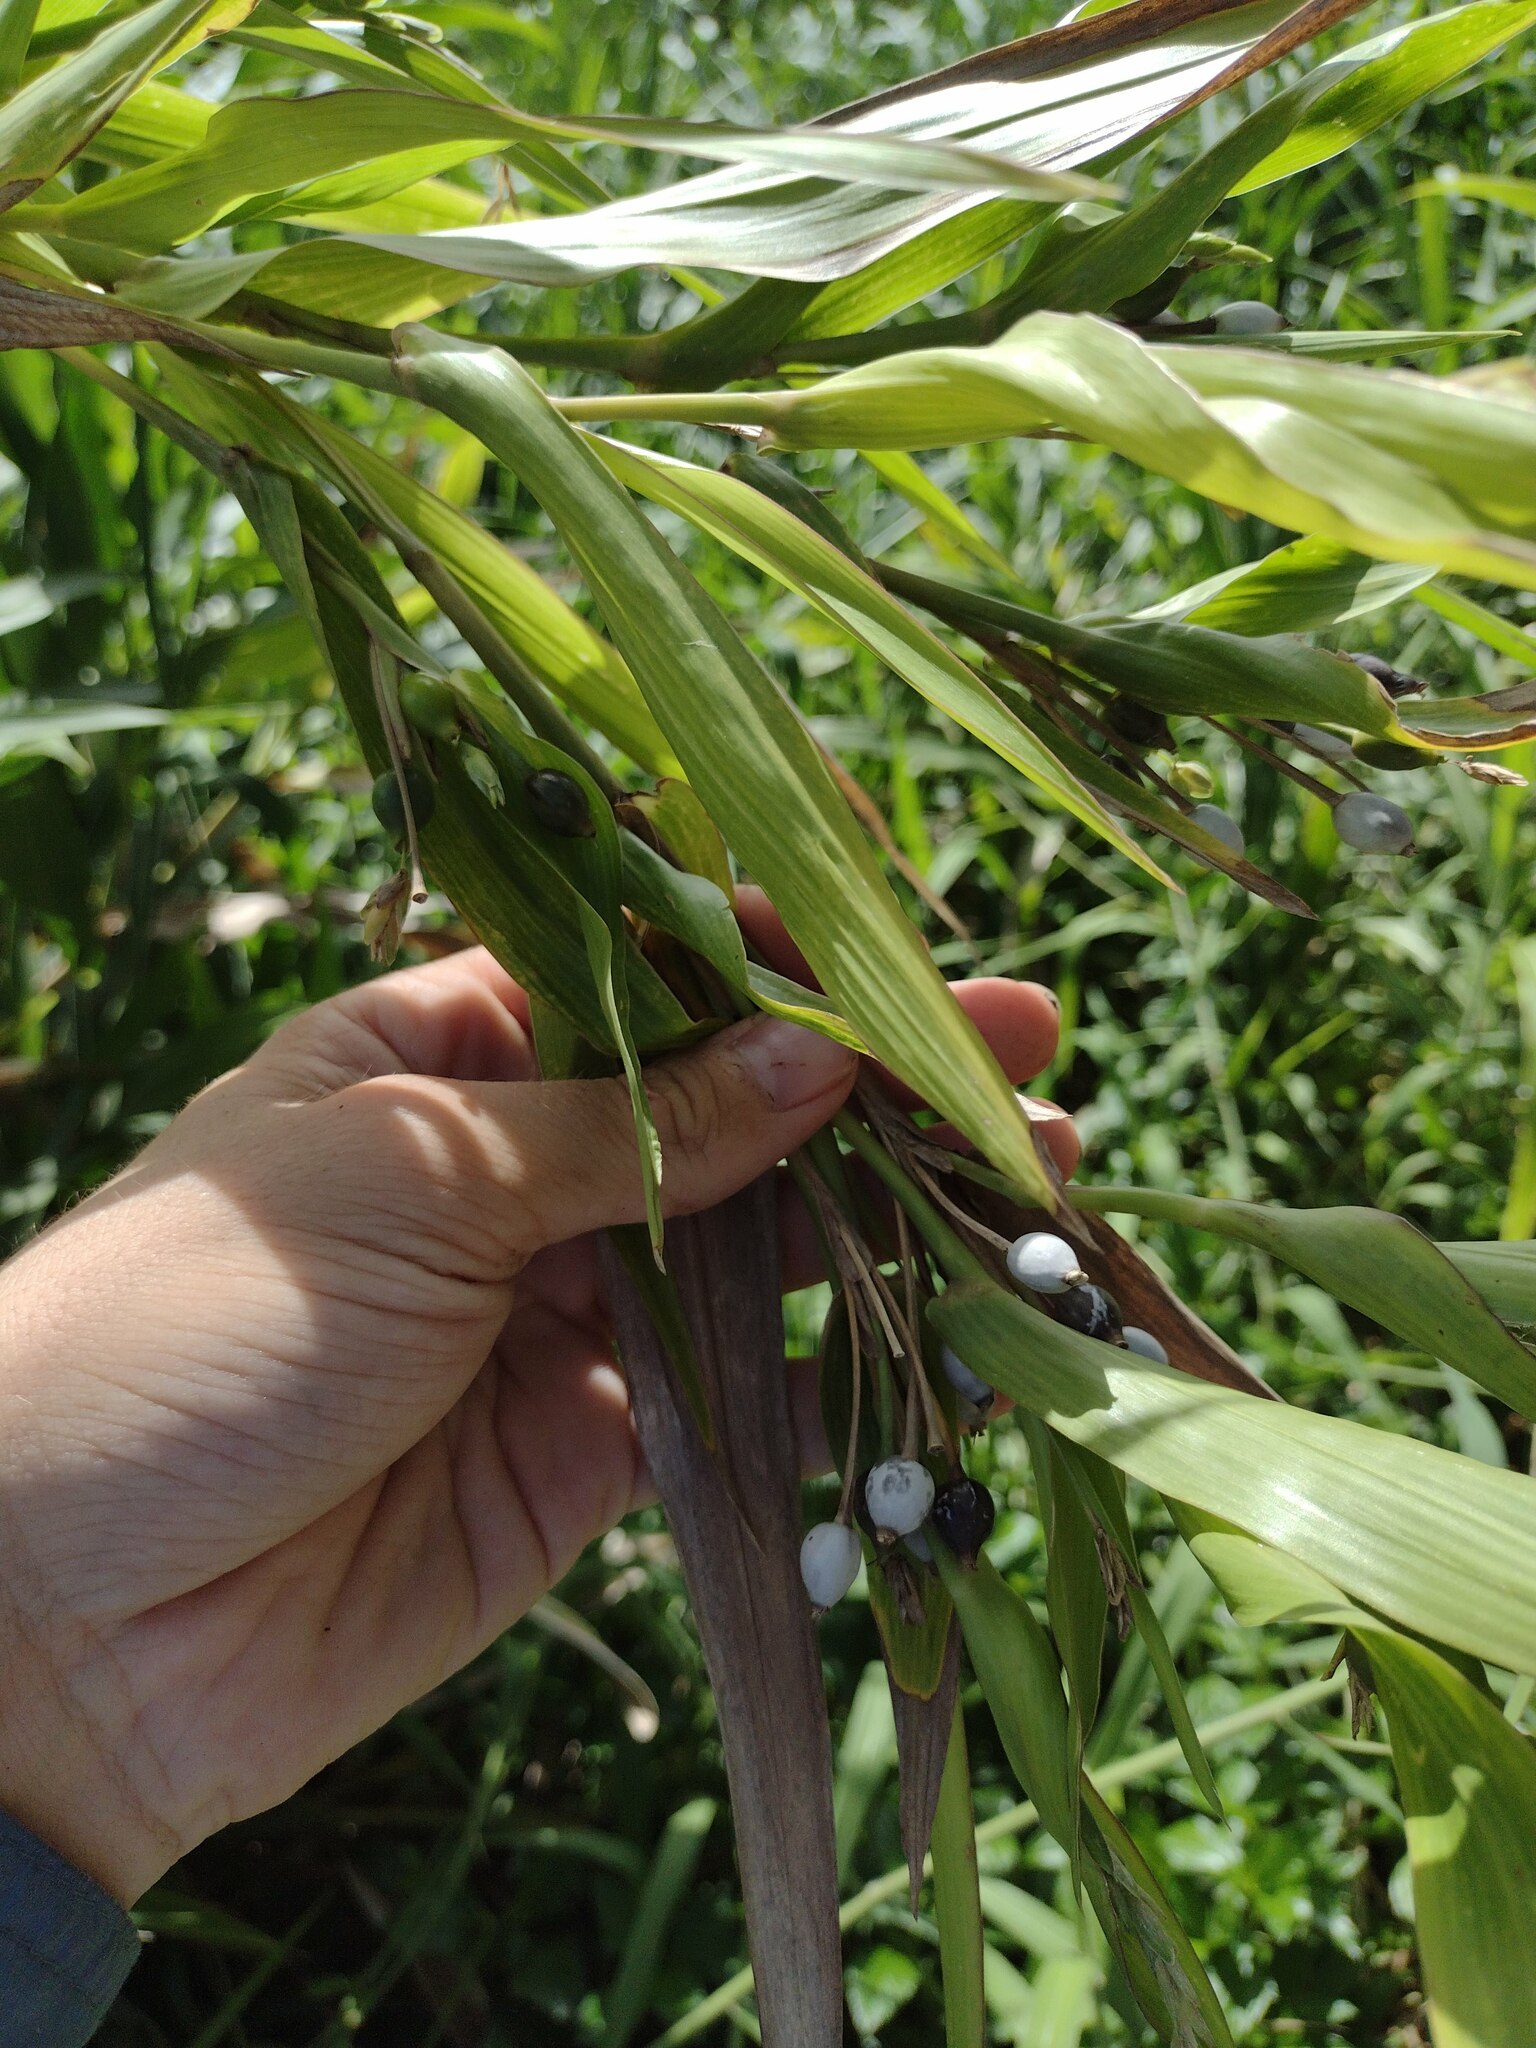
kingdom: Plantae
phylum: Tracheophyta
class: Liliopsida
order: Poales
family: Poaceae
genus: Coix
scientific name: Coix lacryma-jobi
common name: Job's tears
